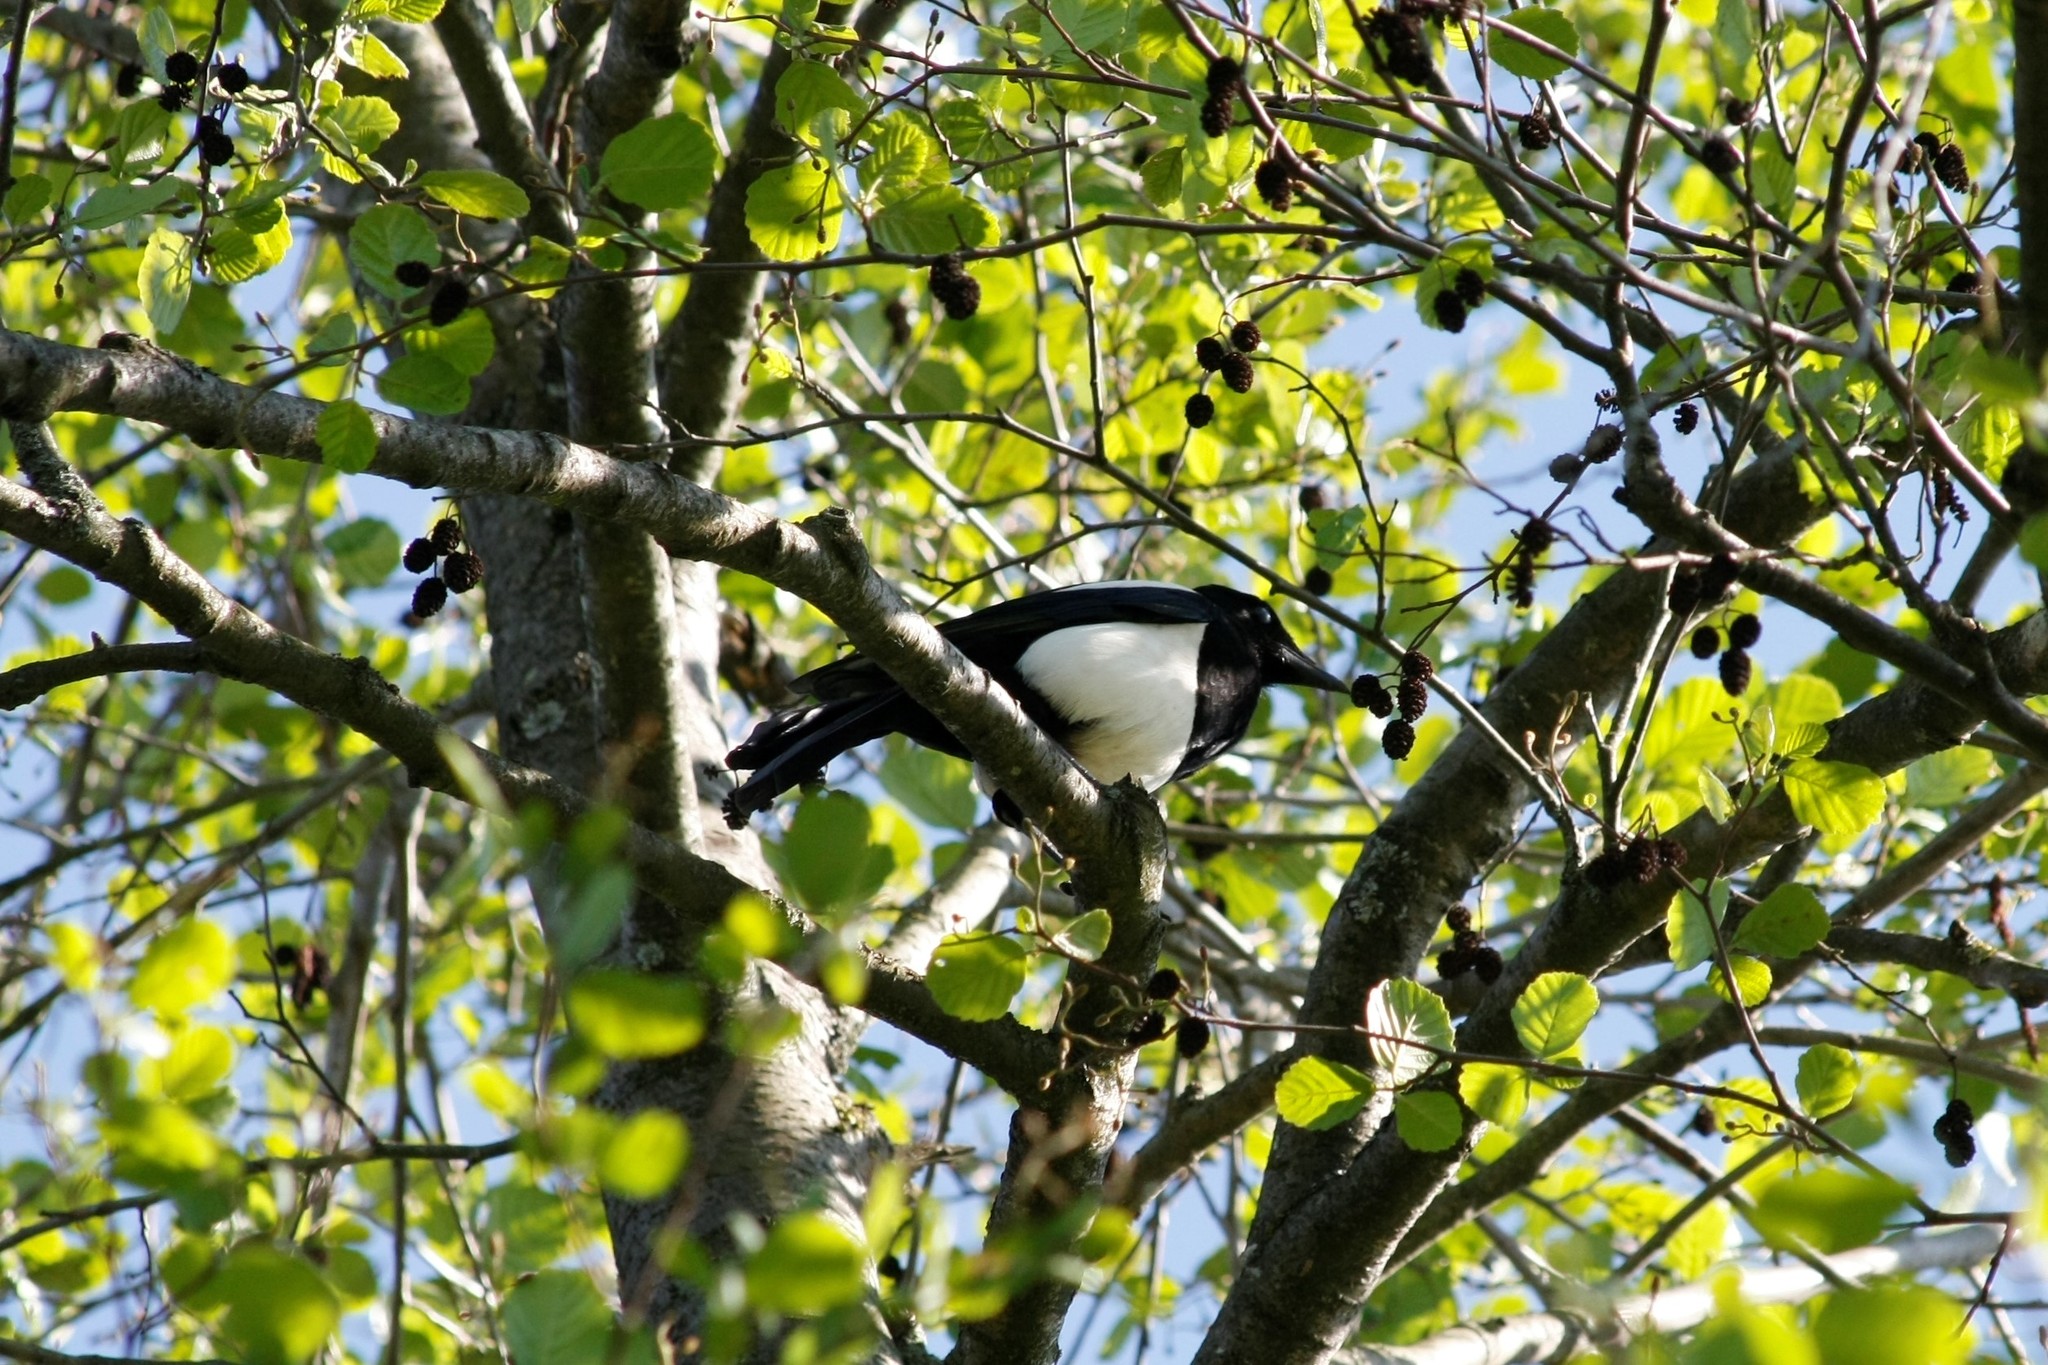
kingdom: Animalia
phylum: Chordata
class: Aves
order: Passeriformes
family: Corvidae
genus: Pica
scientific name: Pica pica
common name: Eurasian magpie
